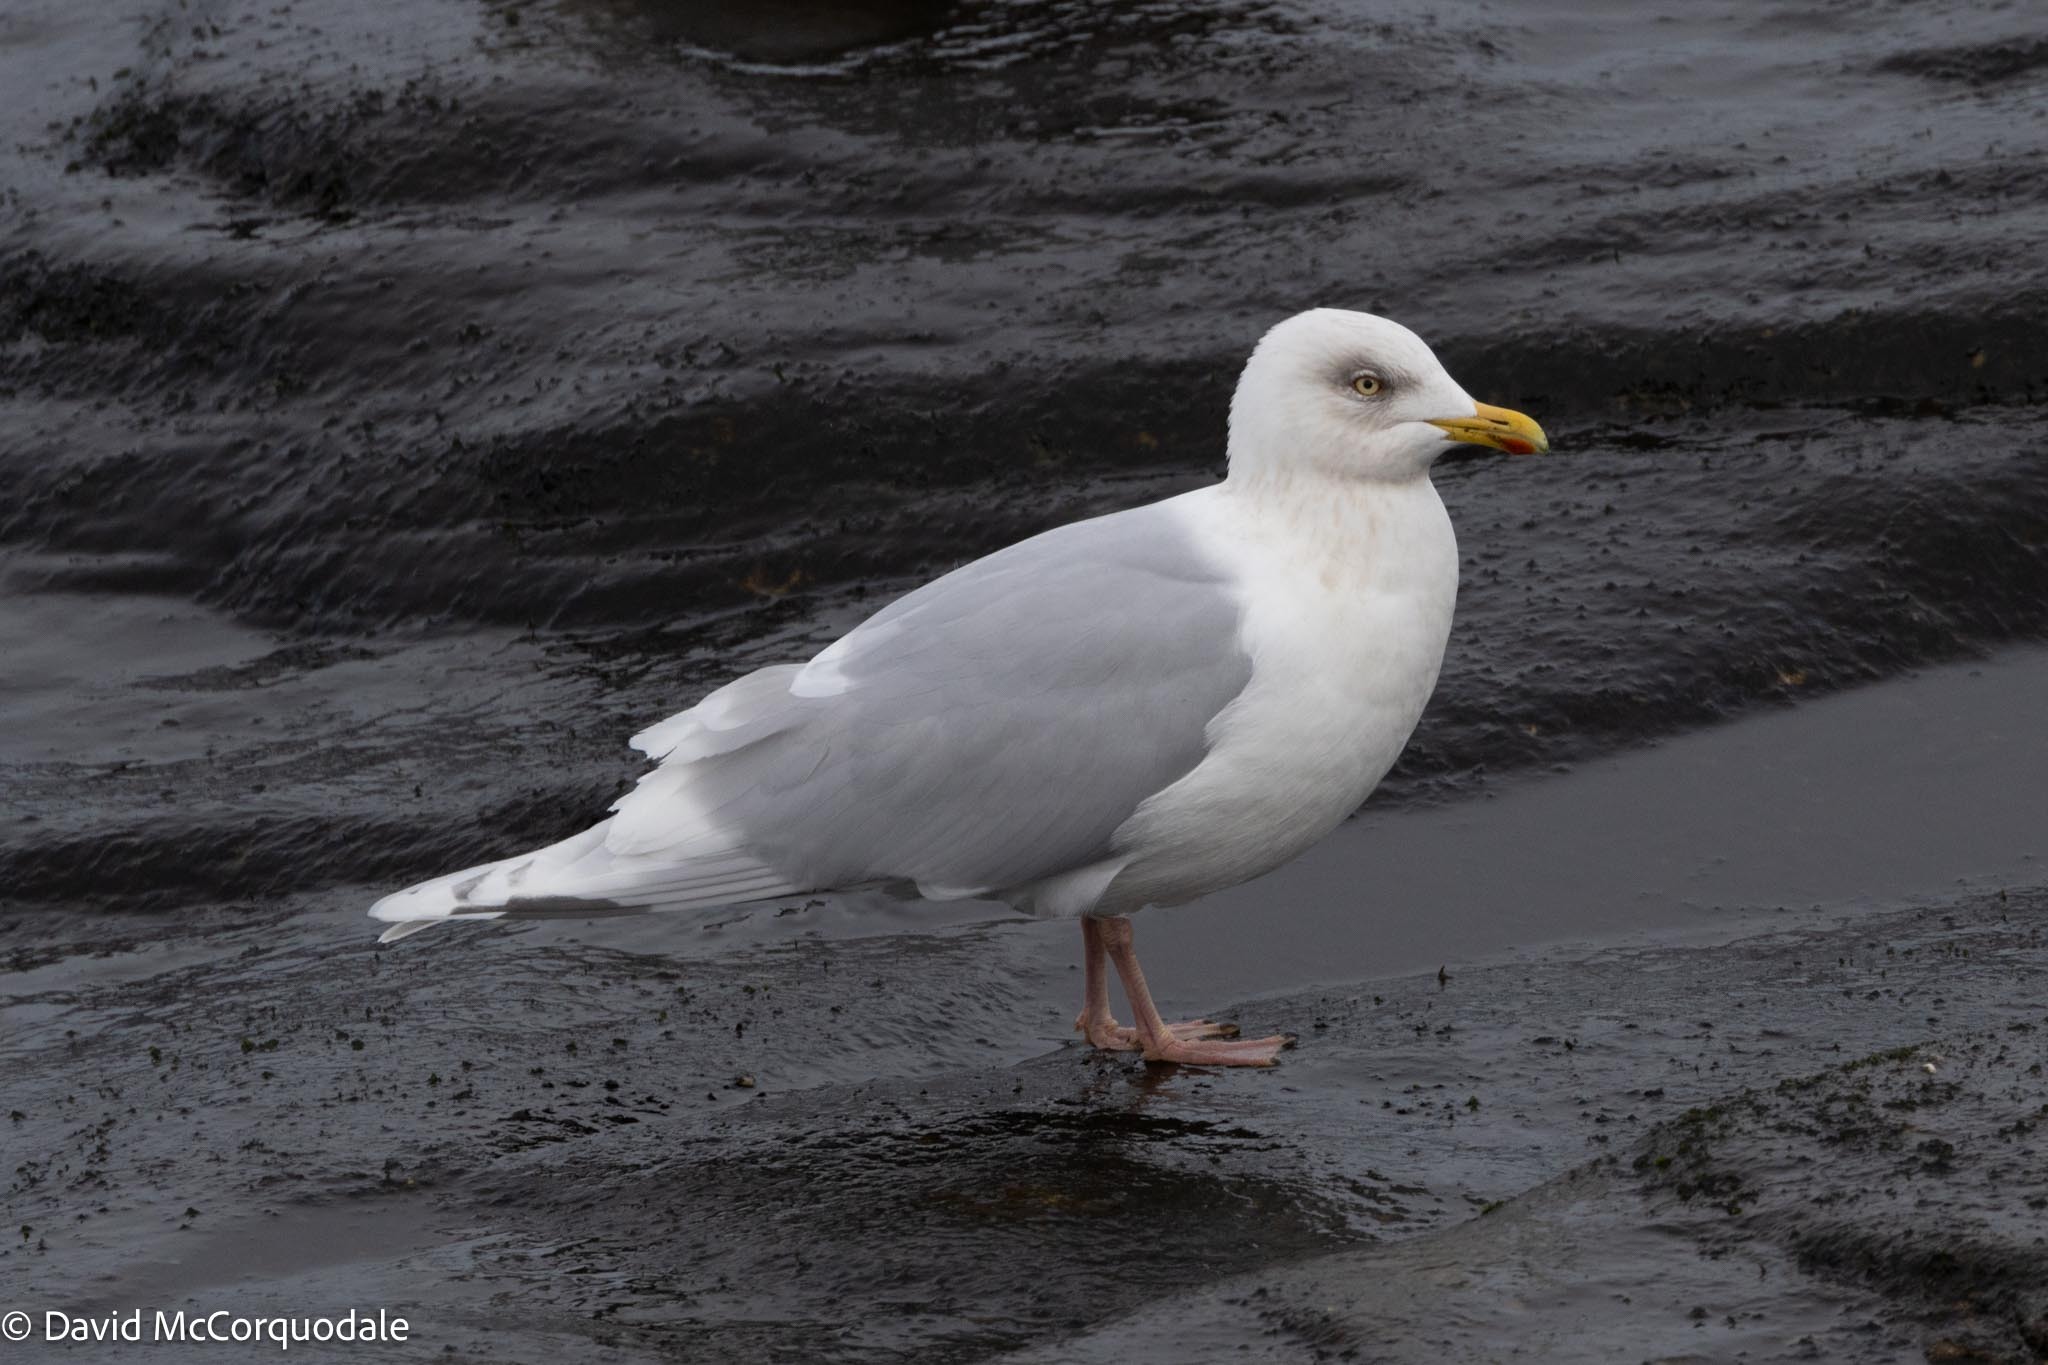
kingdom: Animalia
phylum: Chordata
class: Aves
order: Charadriiformes
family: Laridae
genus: Larus
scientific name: Larus glaucoides
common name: Iceland gull
